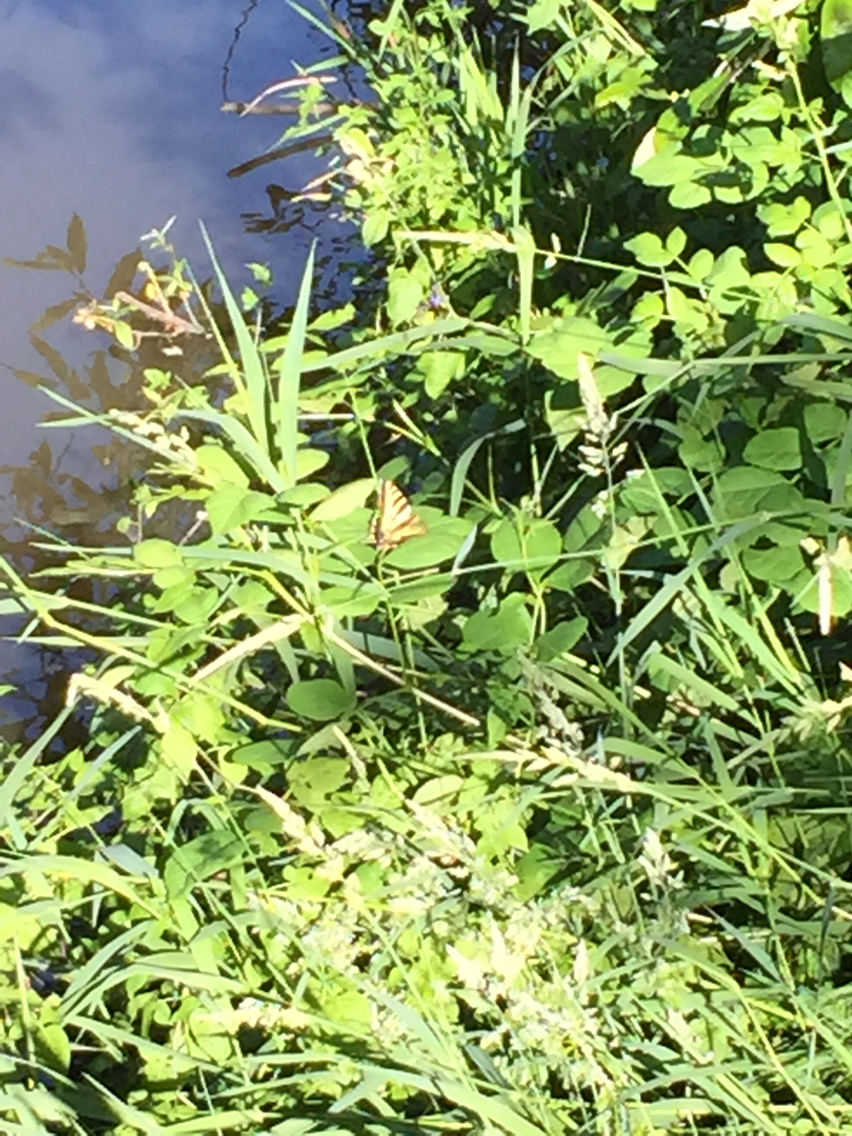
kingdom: Animalia
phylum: Arthropoda
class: Insecta
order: Lepidoptera
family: Papilionidae
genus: Papilio
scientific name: Papilio rutulus
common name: Western tiger swallowtail
